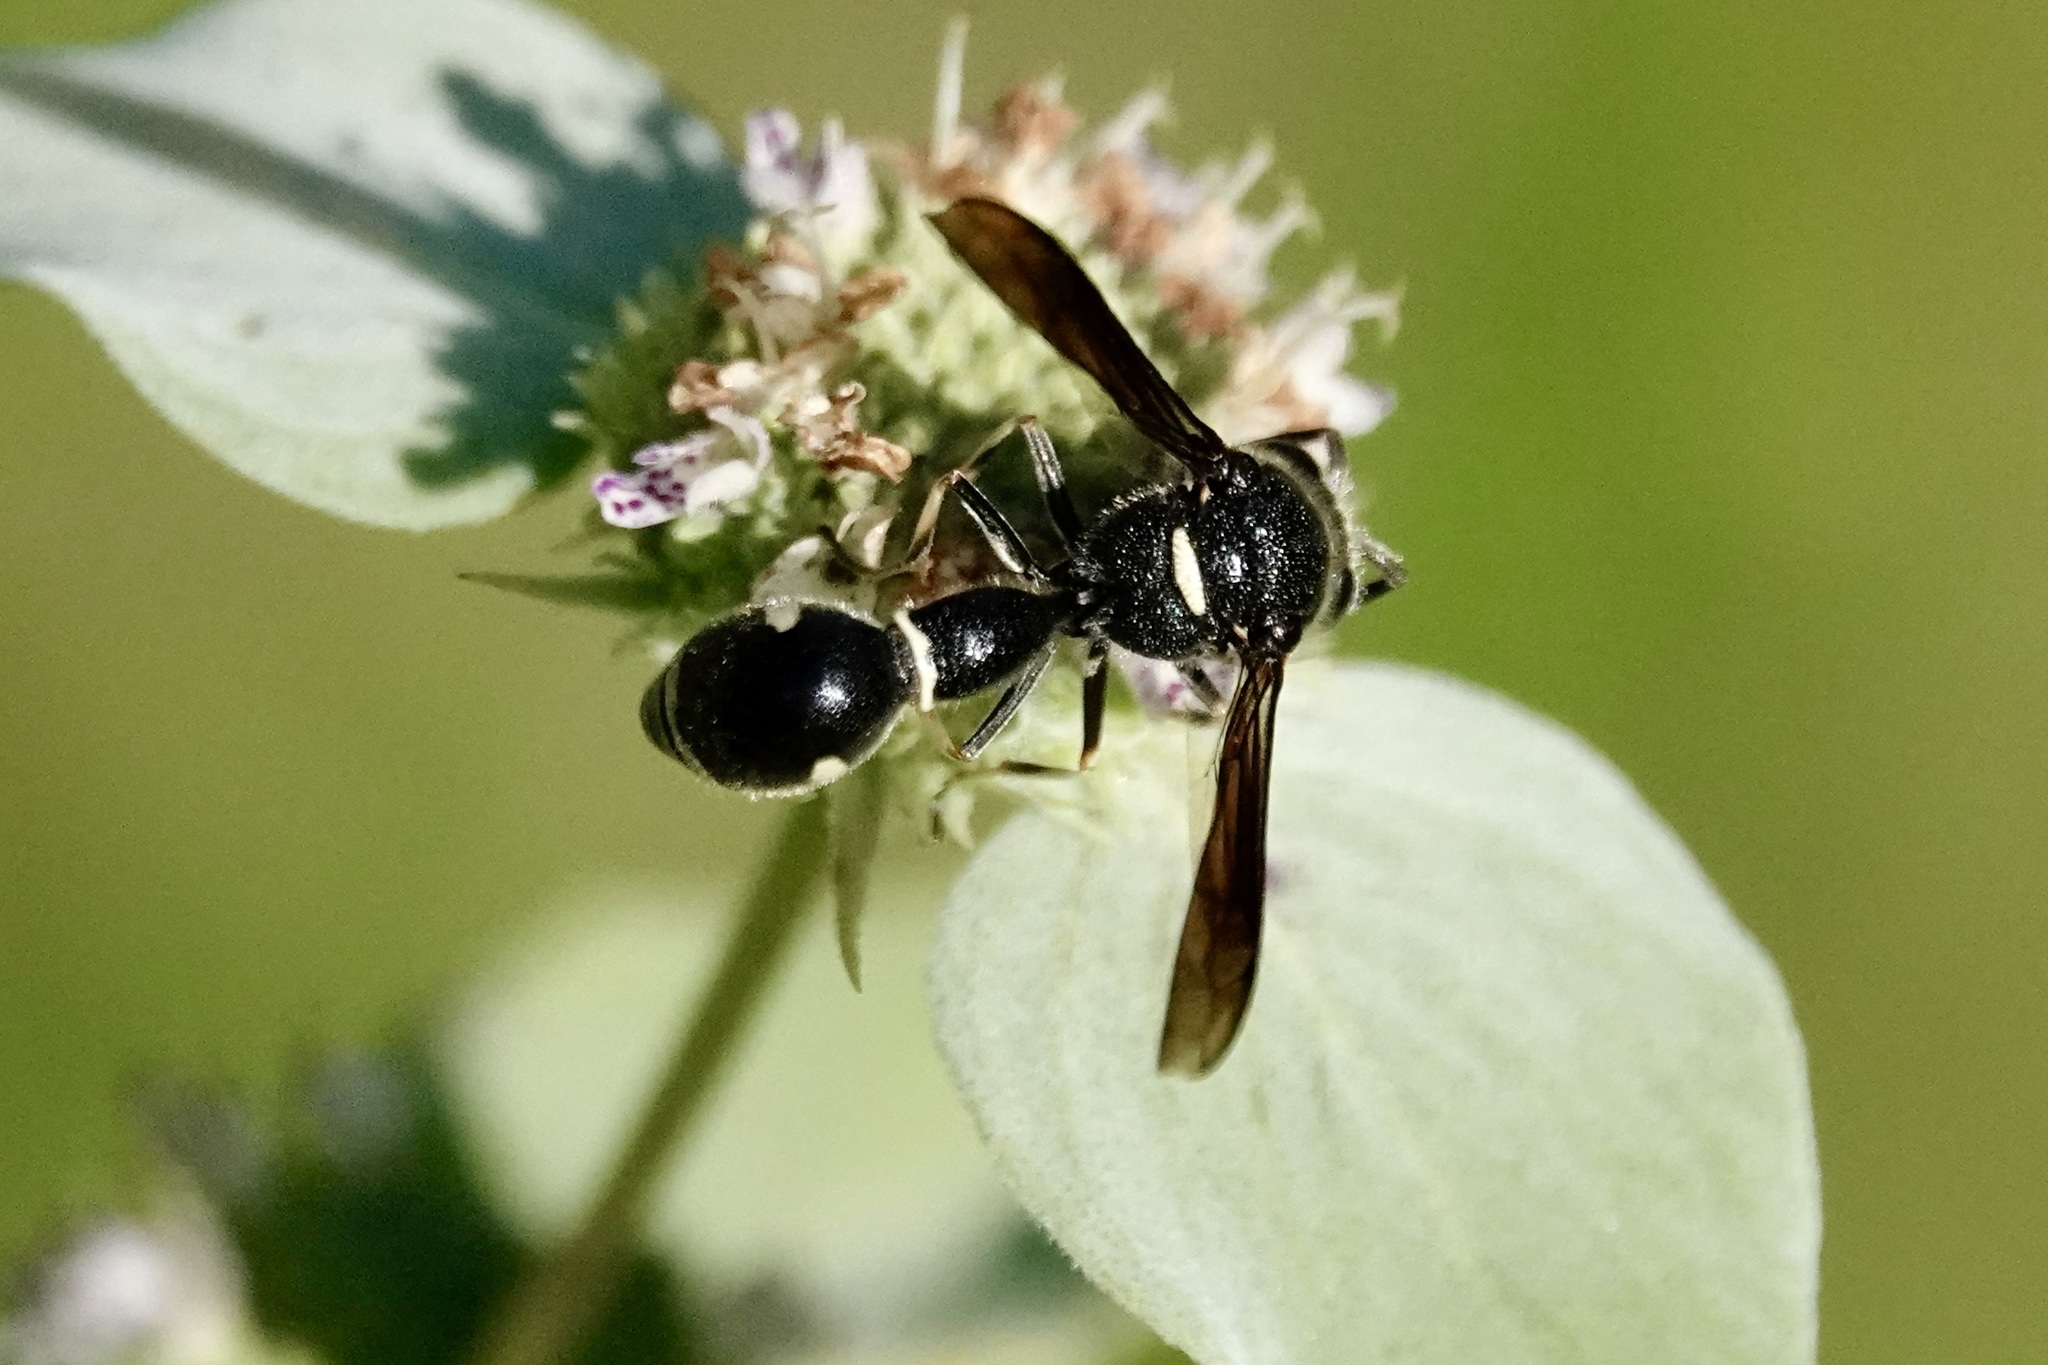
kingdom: Animalia
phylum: Arthropoda
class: Insecta
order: Hymenoptera
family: Vespidae
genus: Eumenes
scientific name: Eumenes fraternus
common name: Fraternal potter wasp
